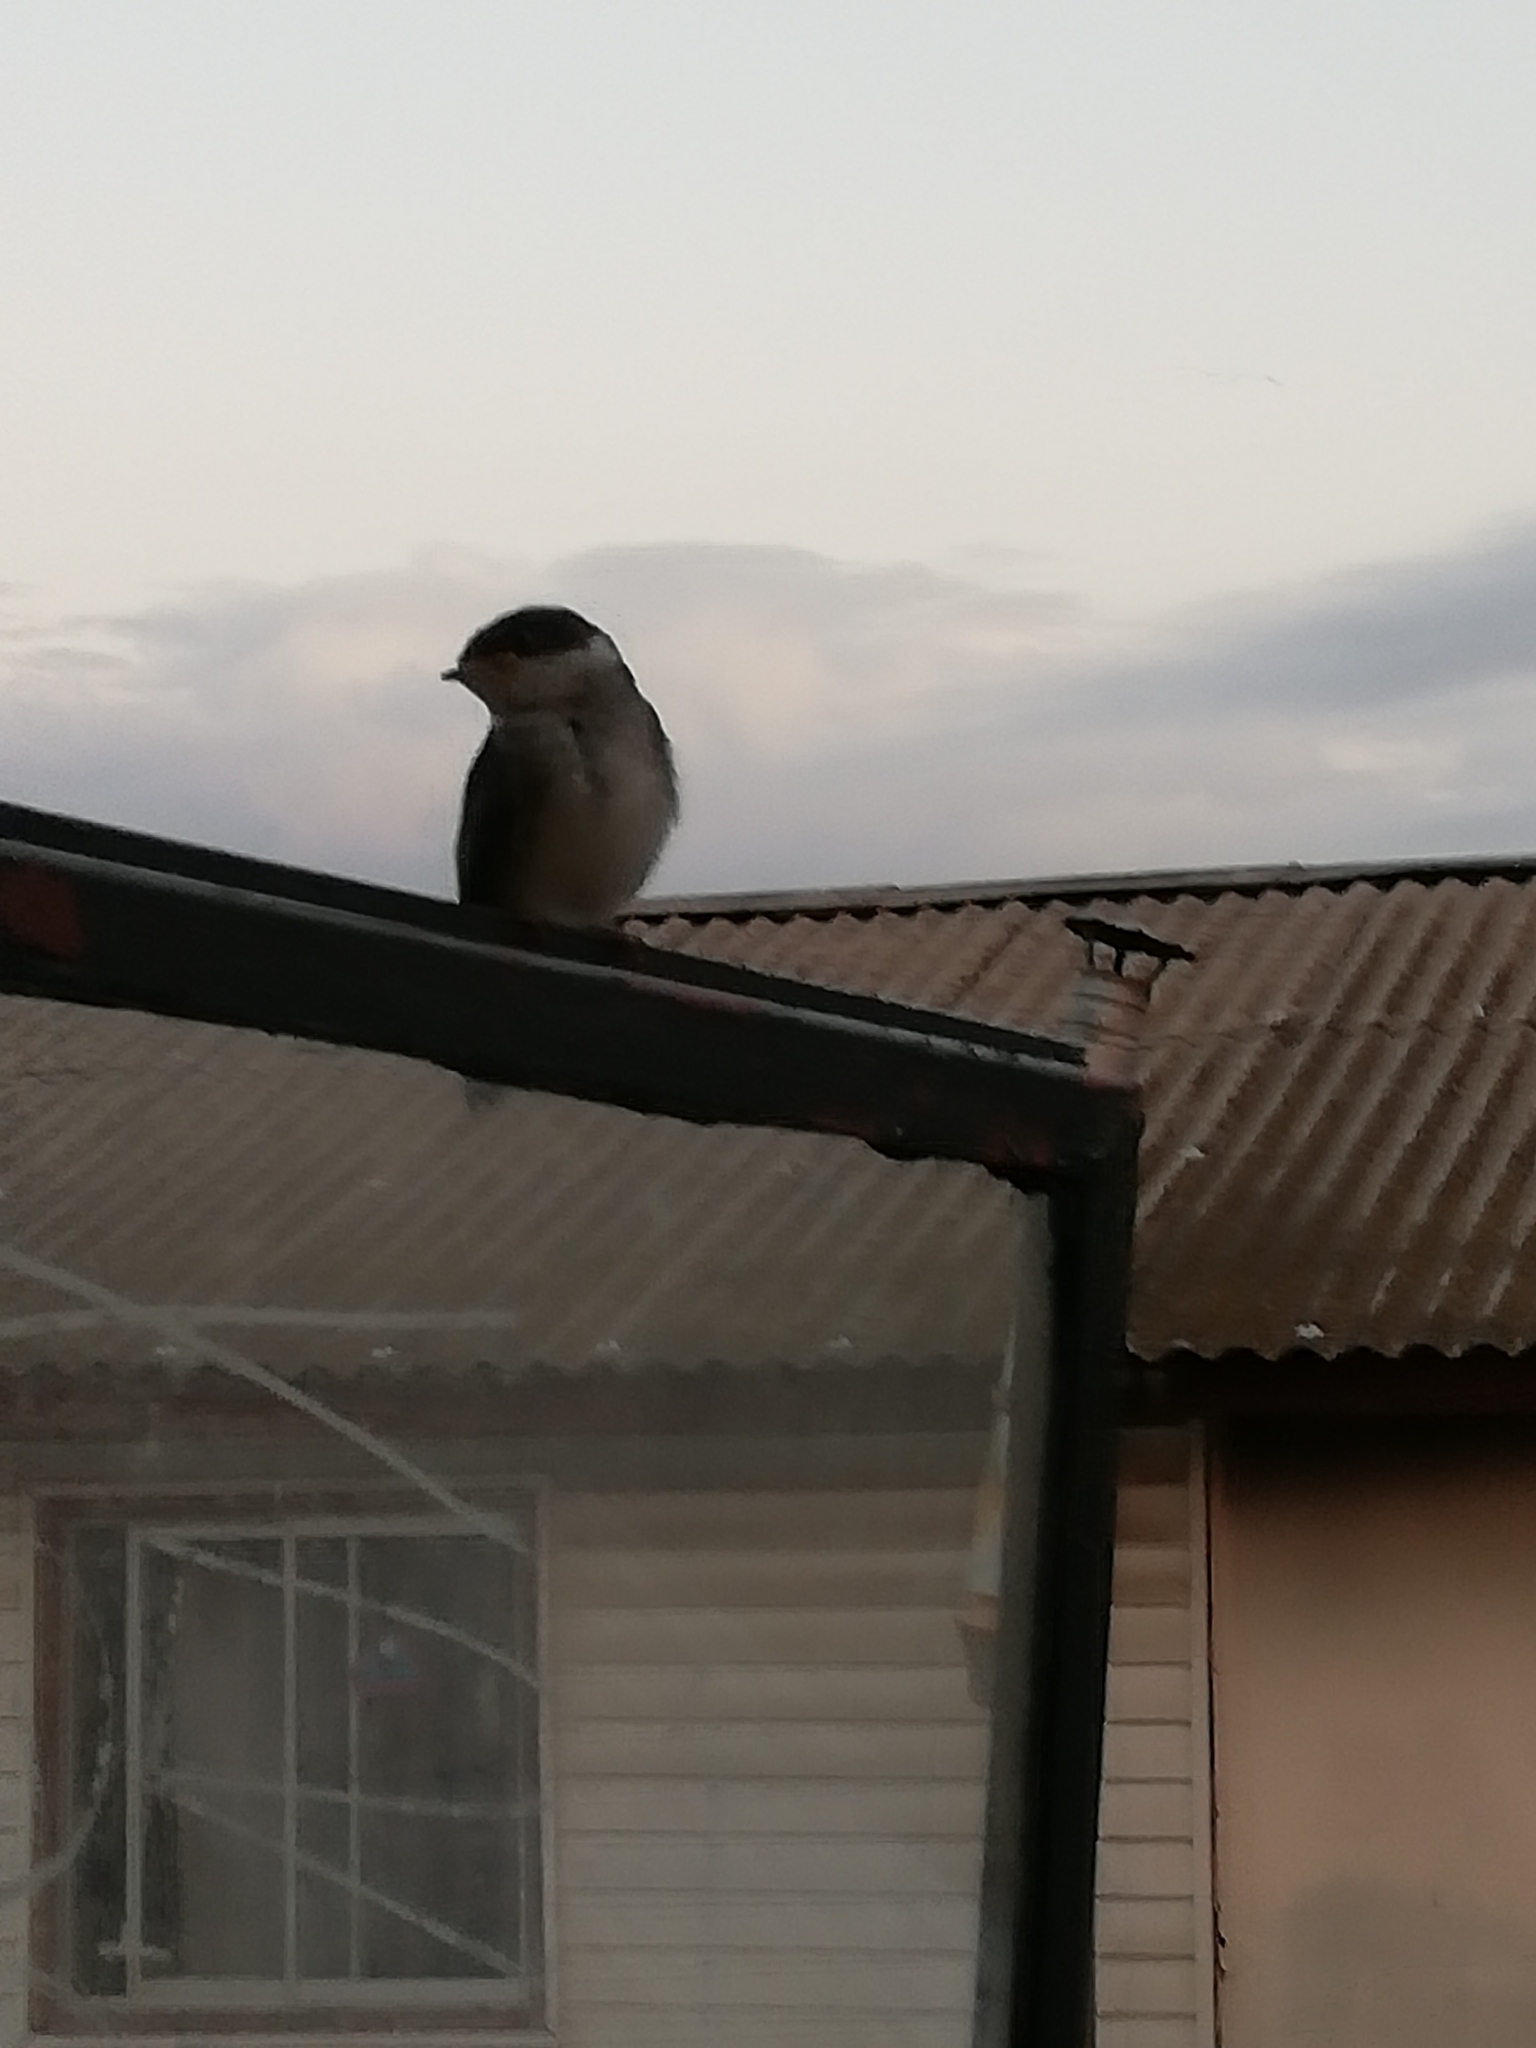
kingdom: Animalia
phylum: Chordata
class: Aves
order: Passeriformes
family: Hirundinidae
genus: Tachycineta
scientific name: Tachycineta leucopyga
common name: Chilean swallow
